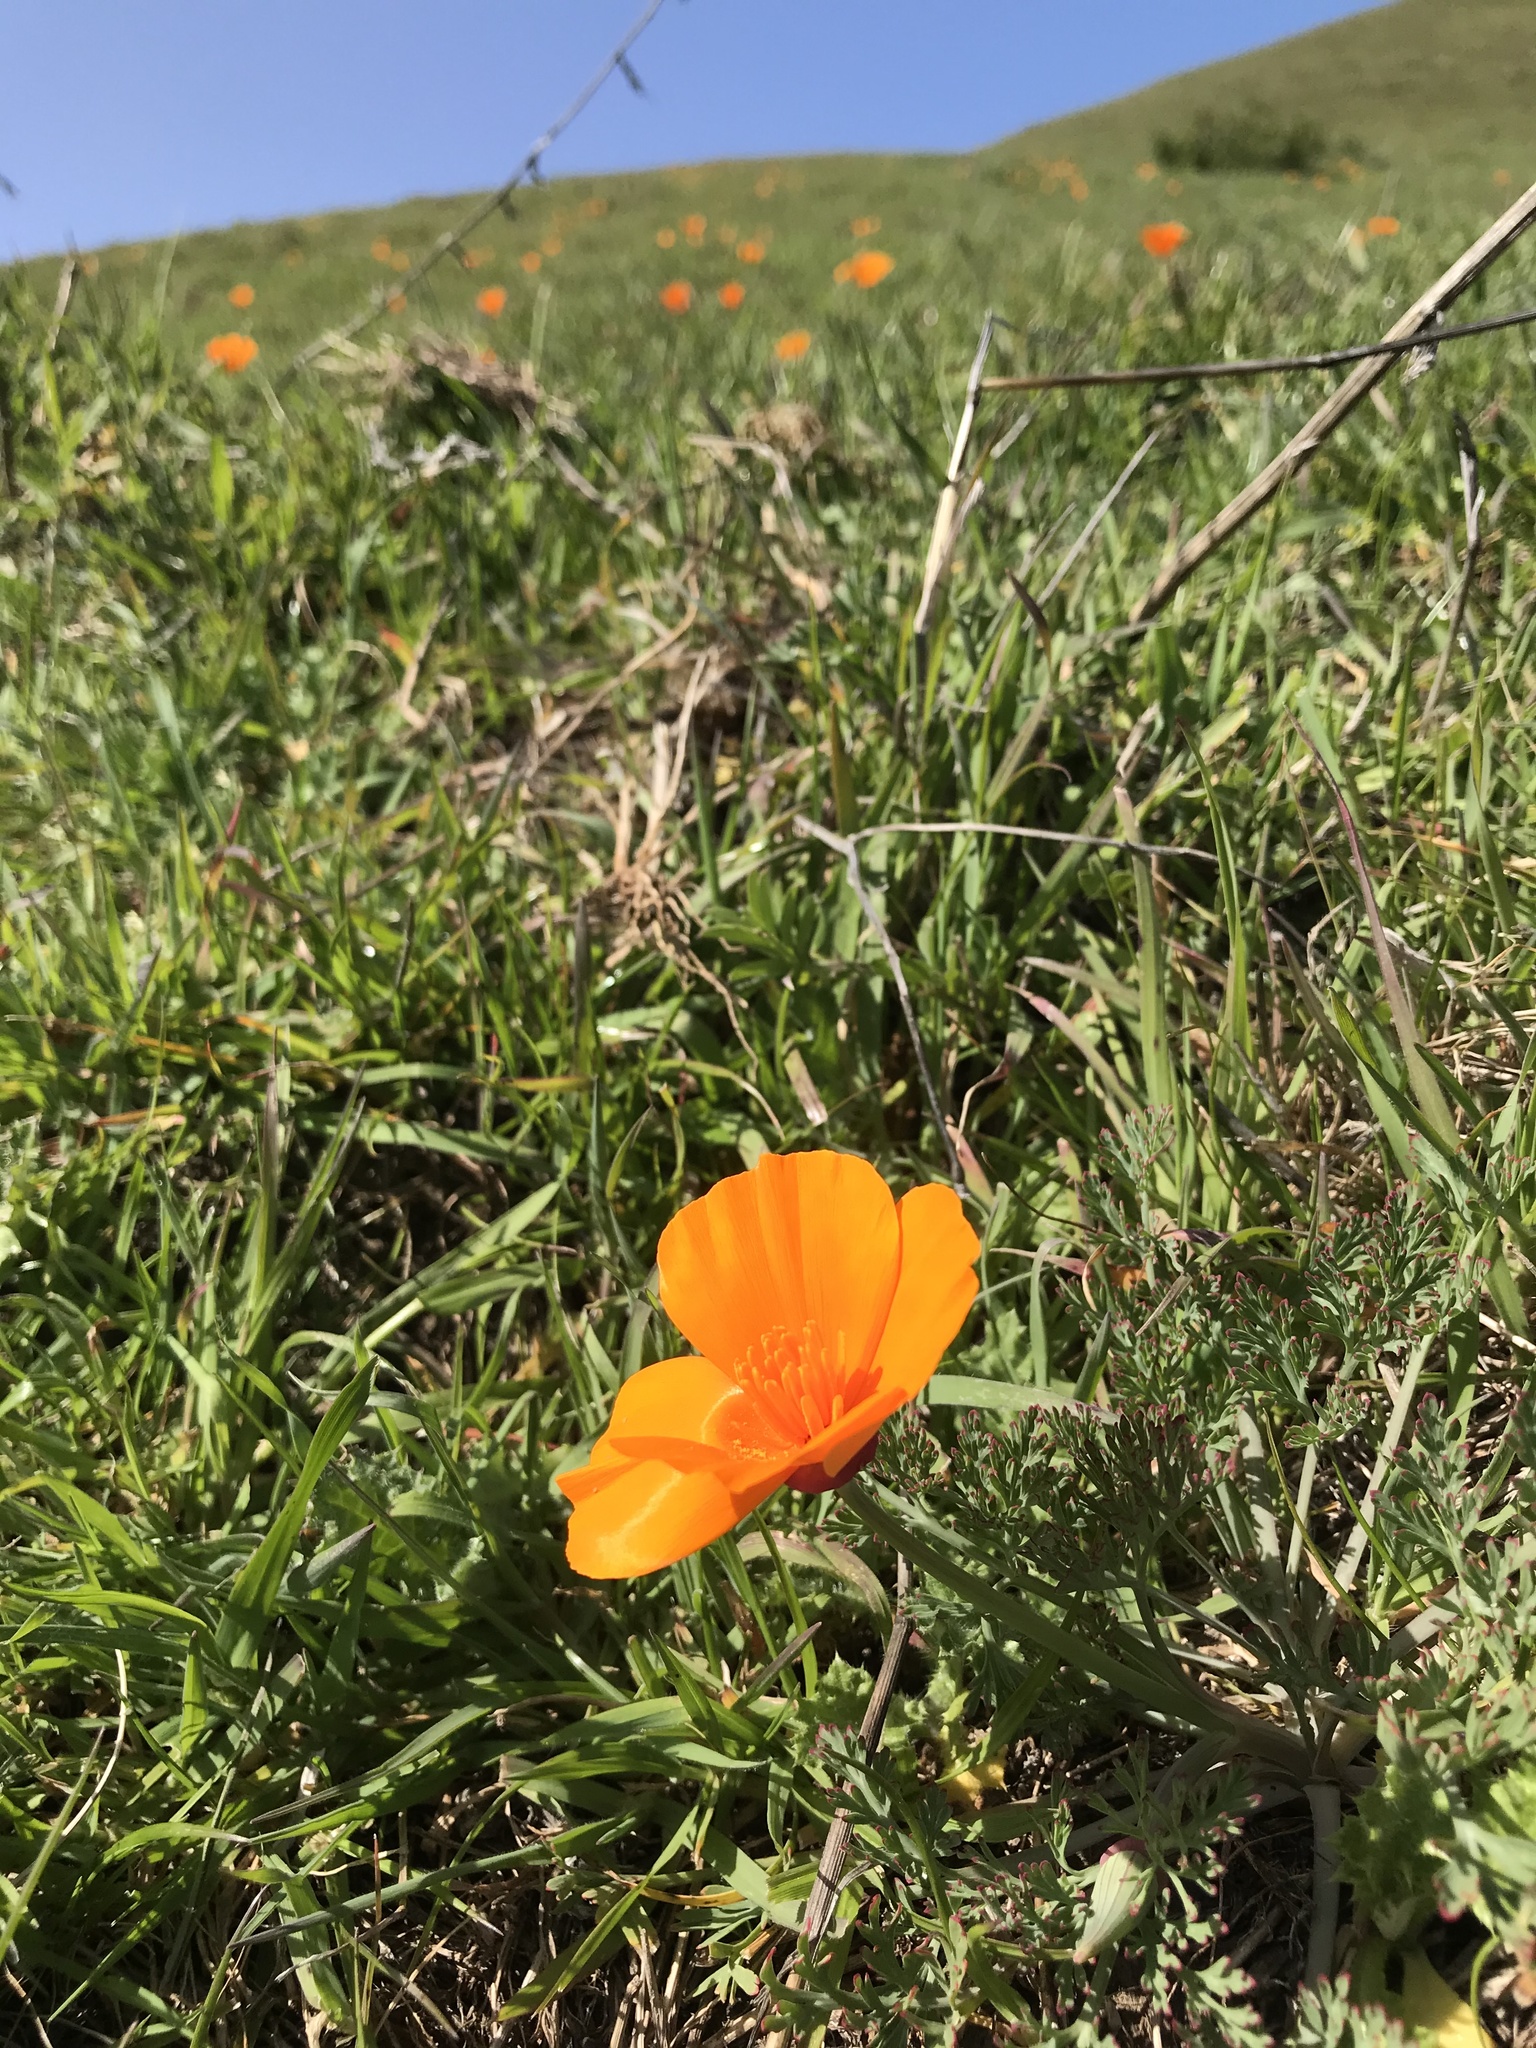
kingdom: Plantae
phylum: Tracheophyta
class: Magnoliopsida
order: Ranunculales
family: Papaveraceae
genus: Eschscholzia
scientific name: Eschscholzia californica
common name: California poppy
